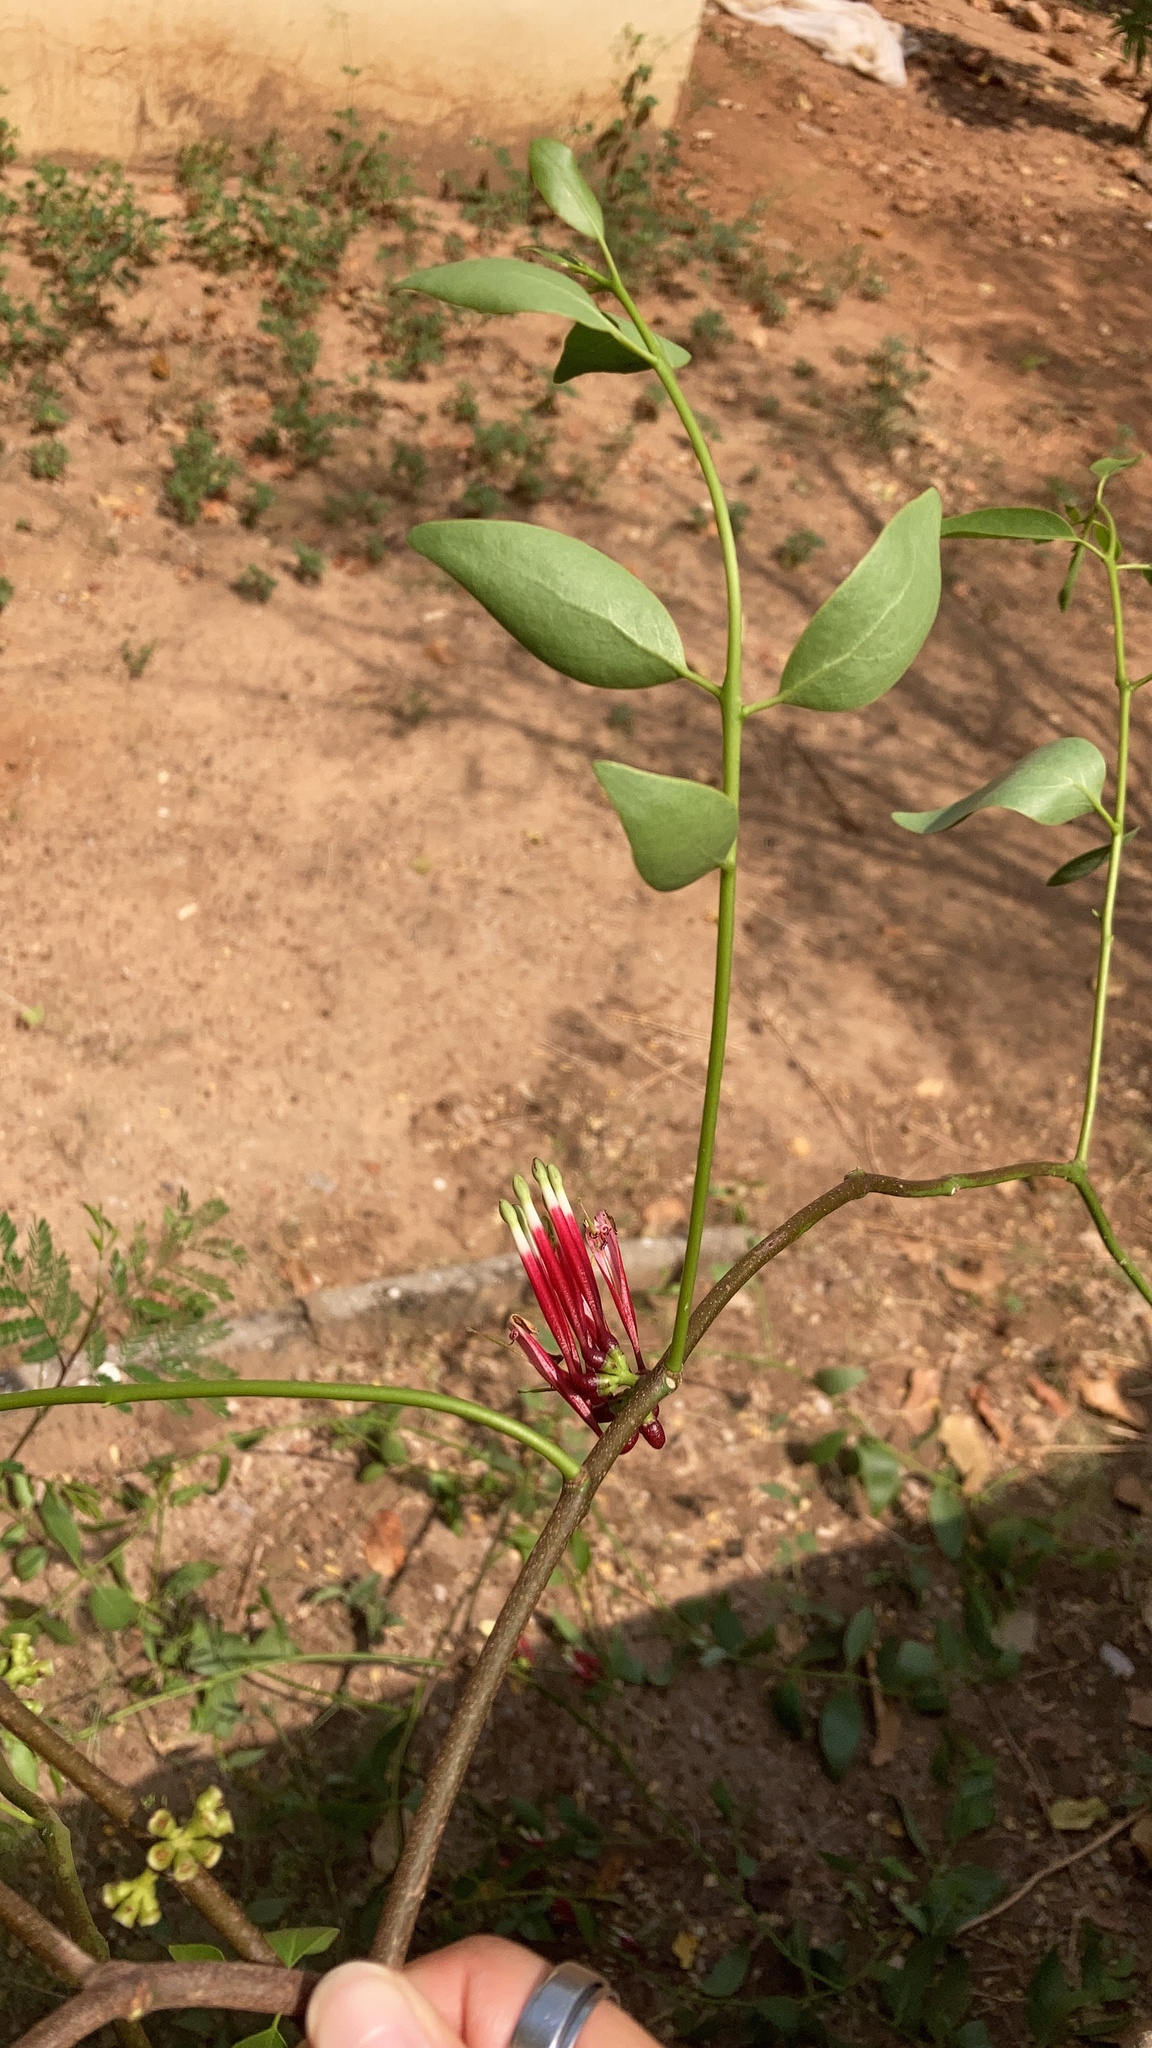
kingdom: Plantae
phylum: Tracheophyta
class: Magnoliopsida
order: Santalales
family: Loranthaceae
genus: Tapinanthus
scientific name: Tapinanthus globiferus
